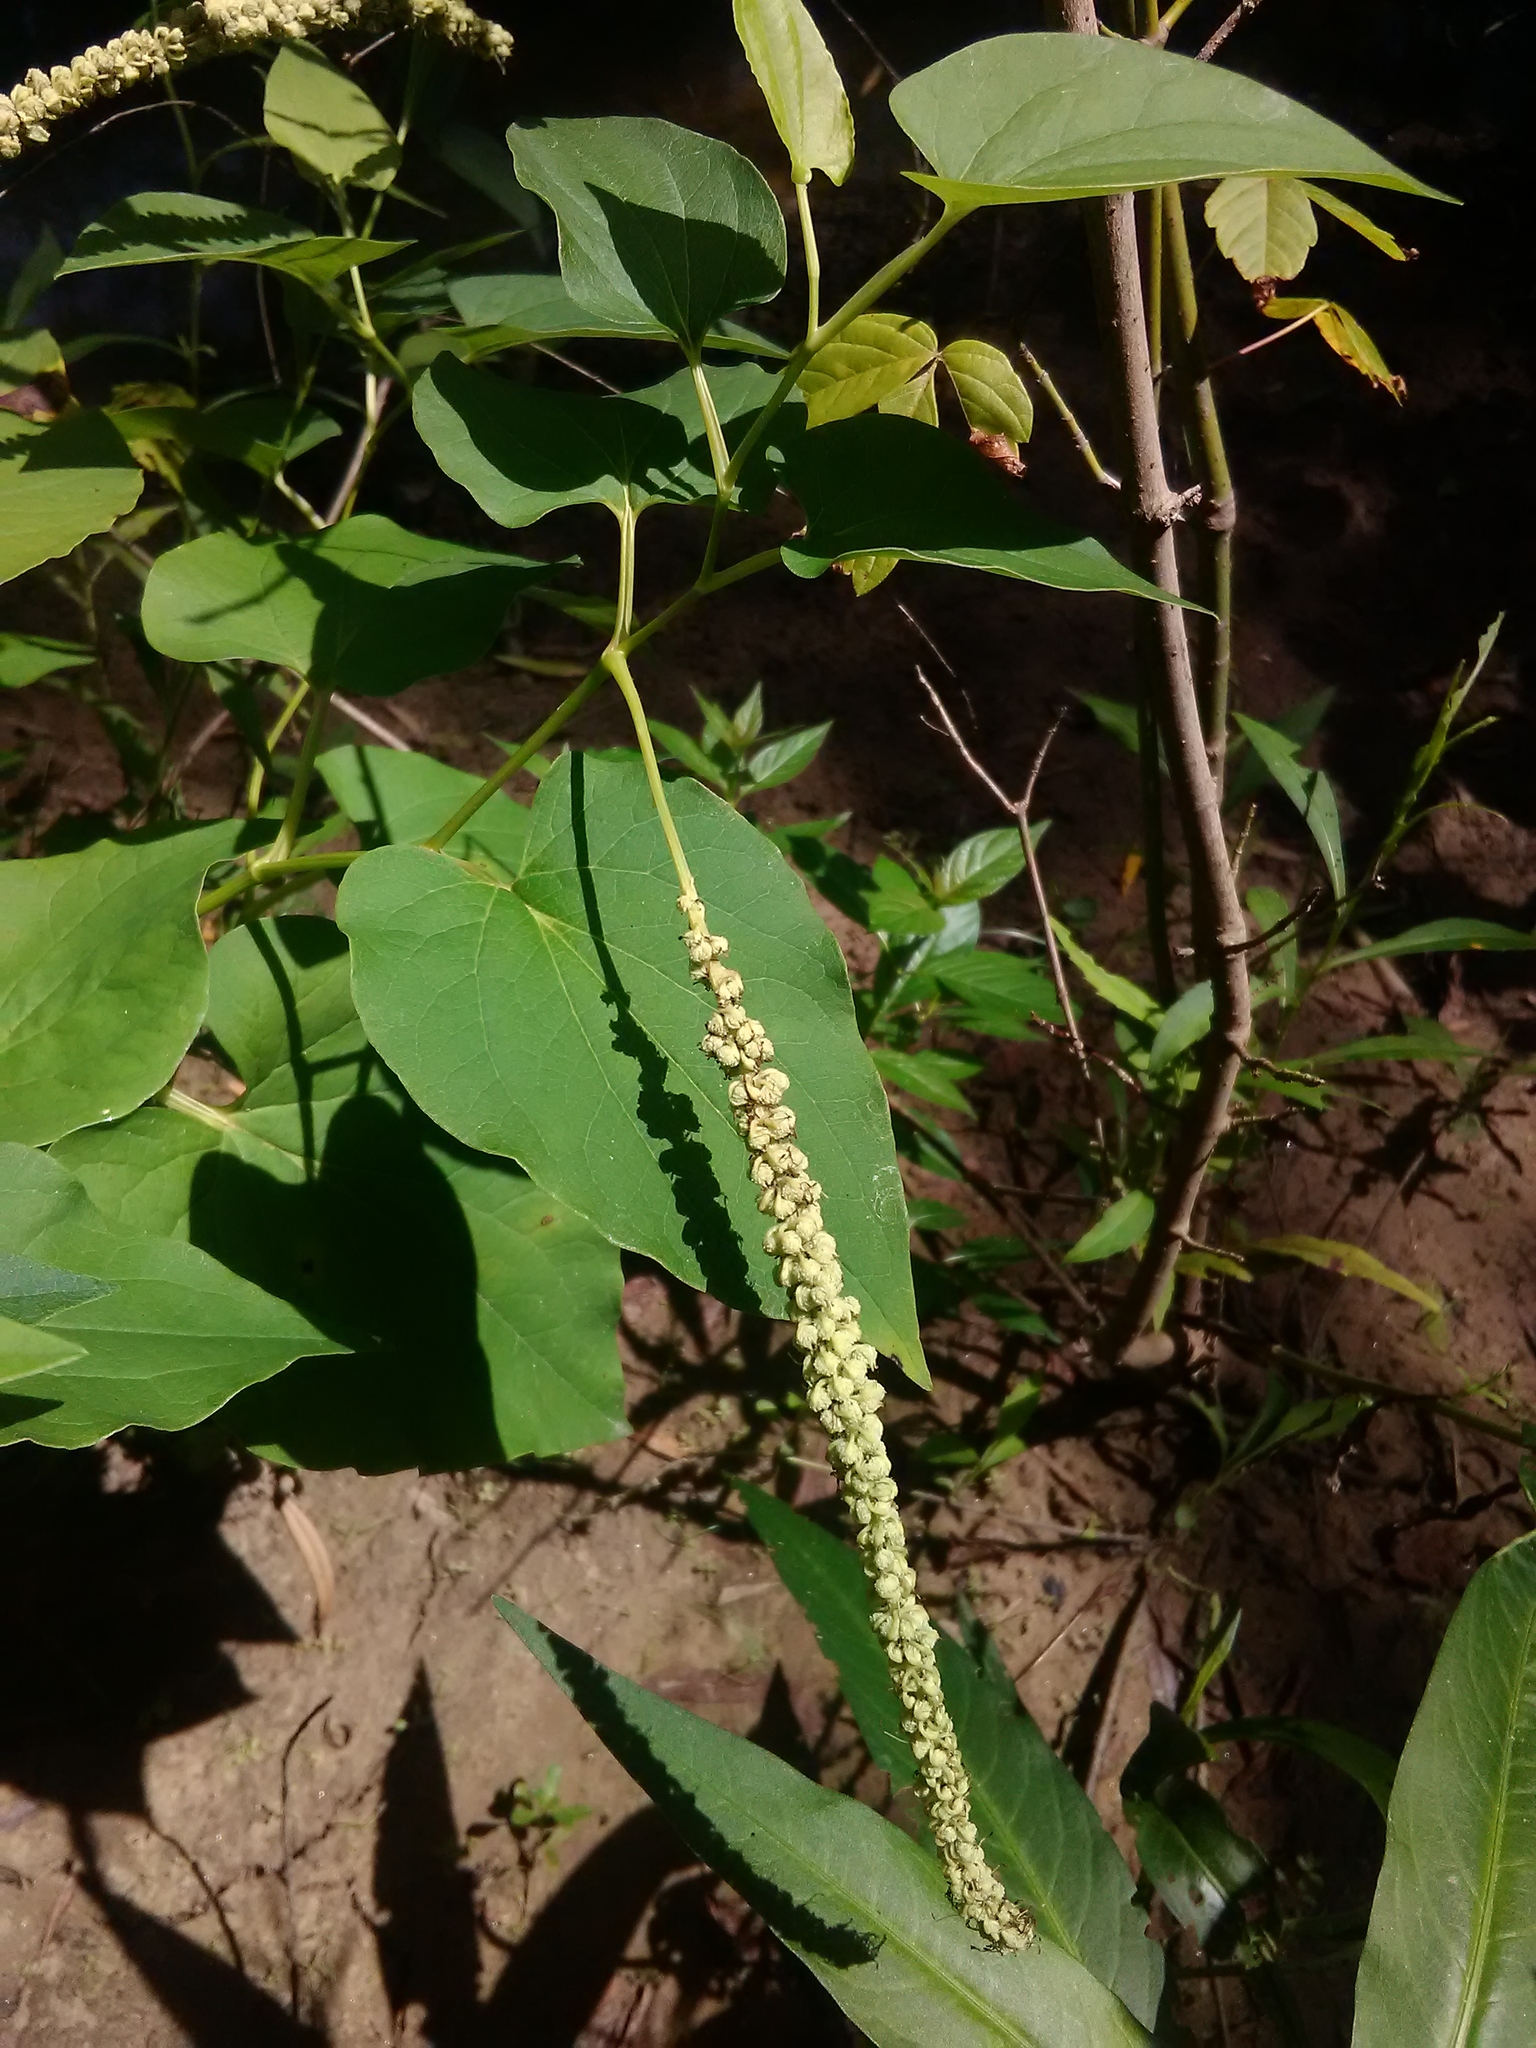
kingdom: Plantae
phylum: Tracheophyta
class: Magnoliopsida
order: Piperales
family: Saururaceae
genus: Saururus
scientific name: Saururus cernuus
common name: Lizard's-tail
